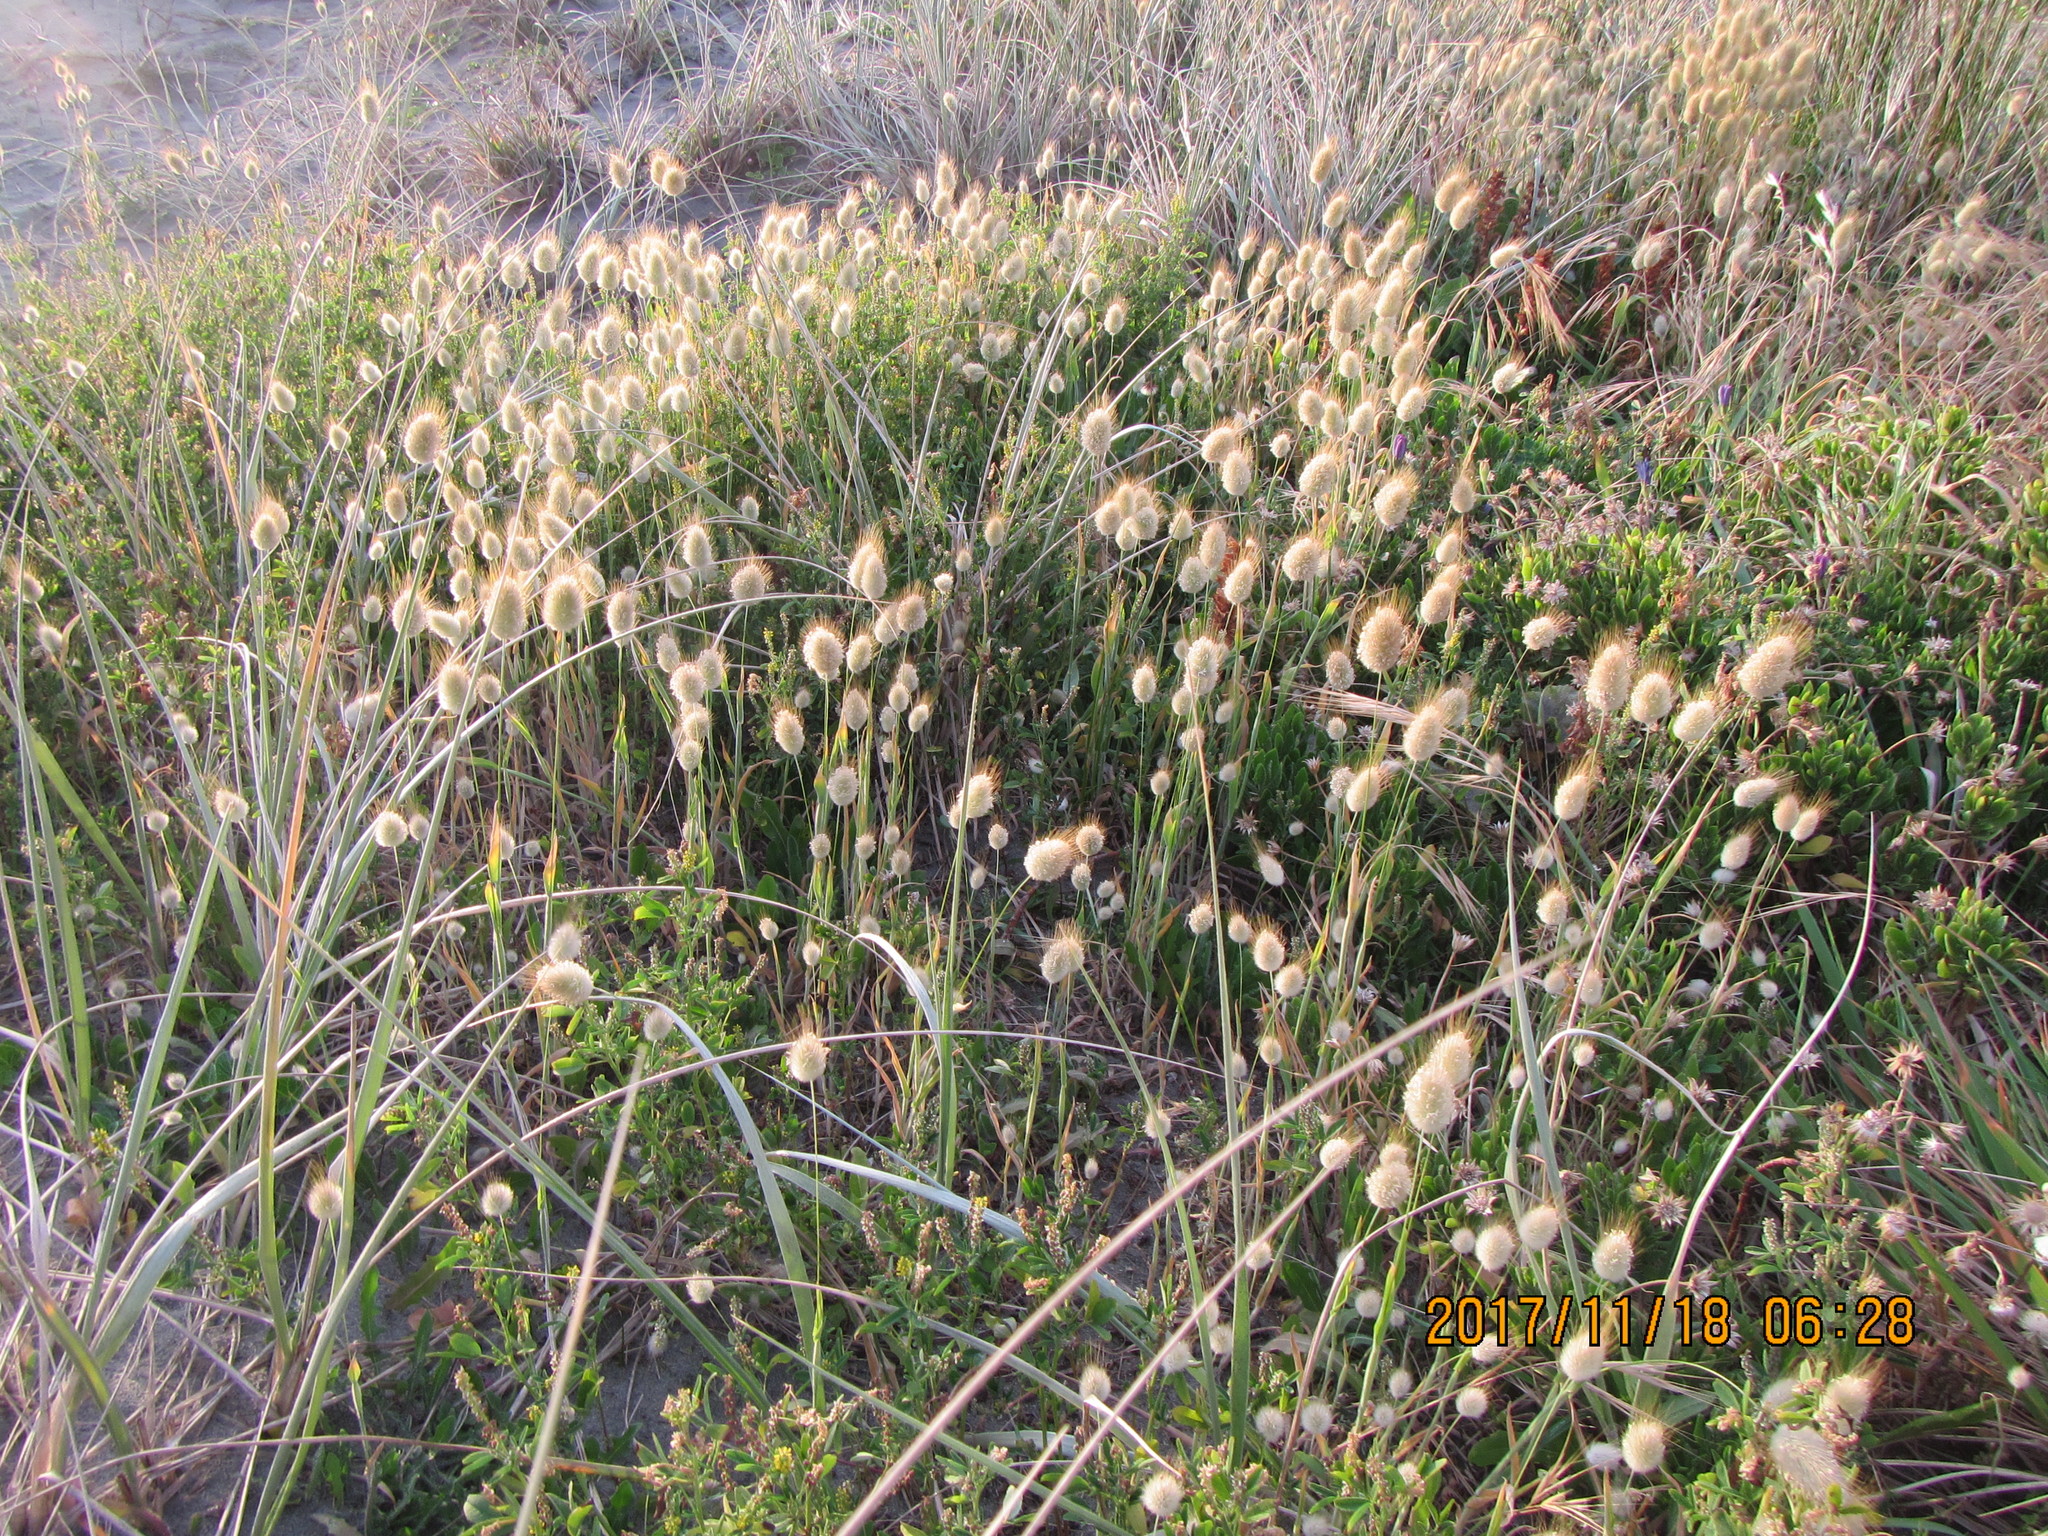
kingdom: Plantae
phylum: Tracheophyta
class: Liliopsida
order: Poales
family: Poaceae
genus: Lagurus
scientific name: Lagurus ovatus
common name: Hare's-tail
